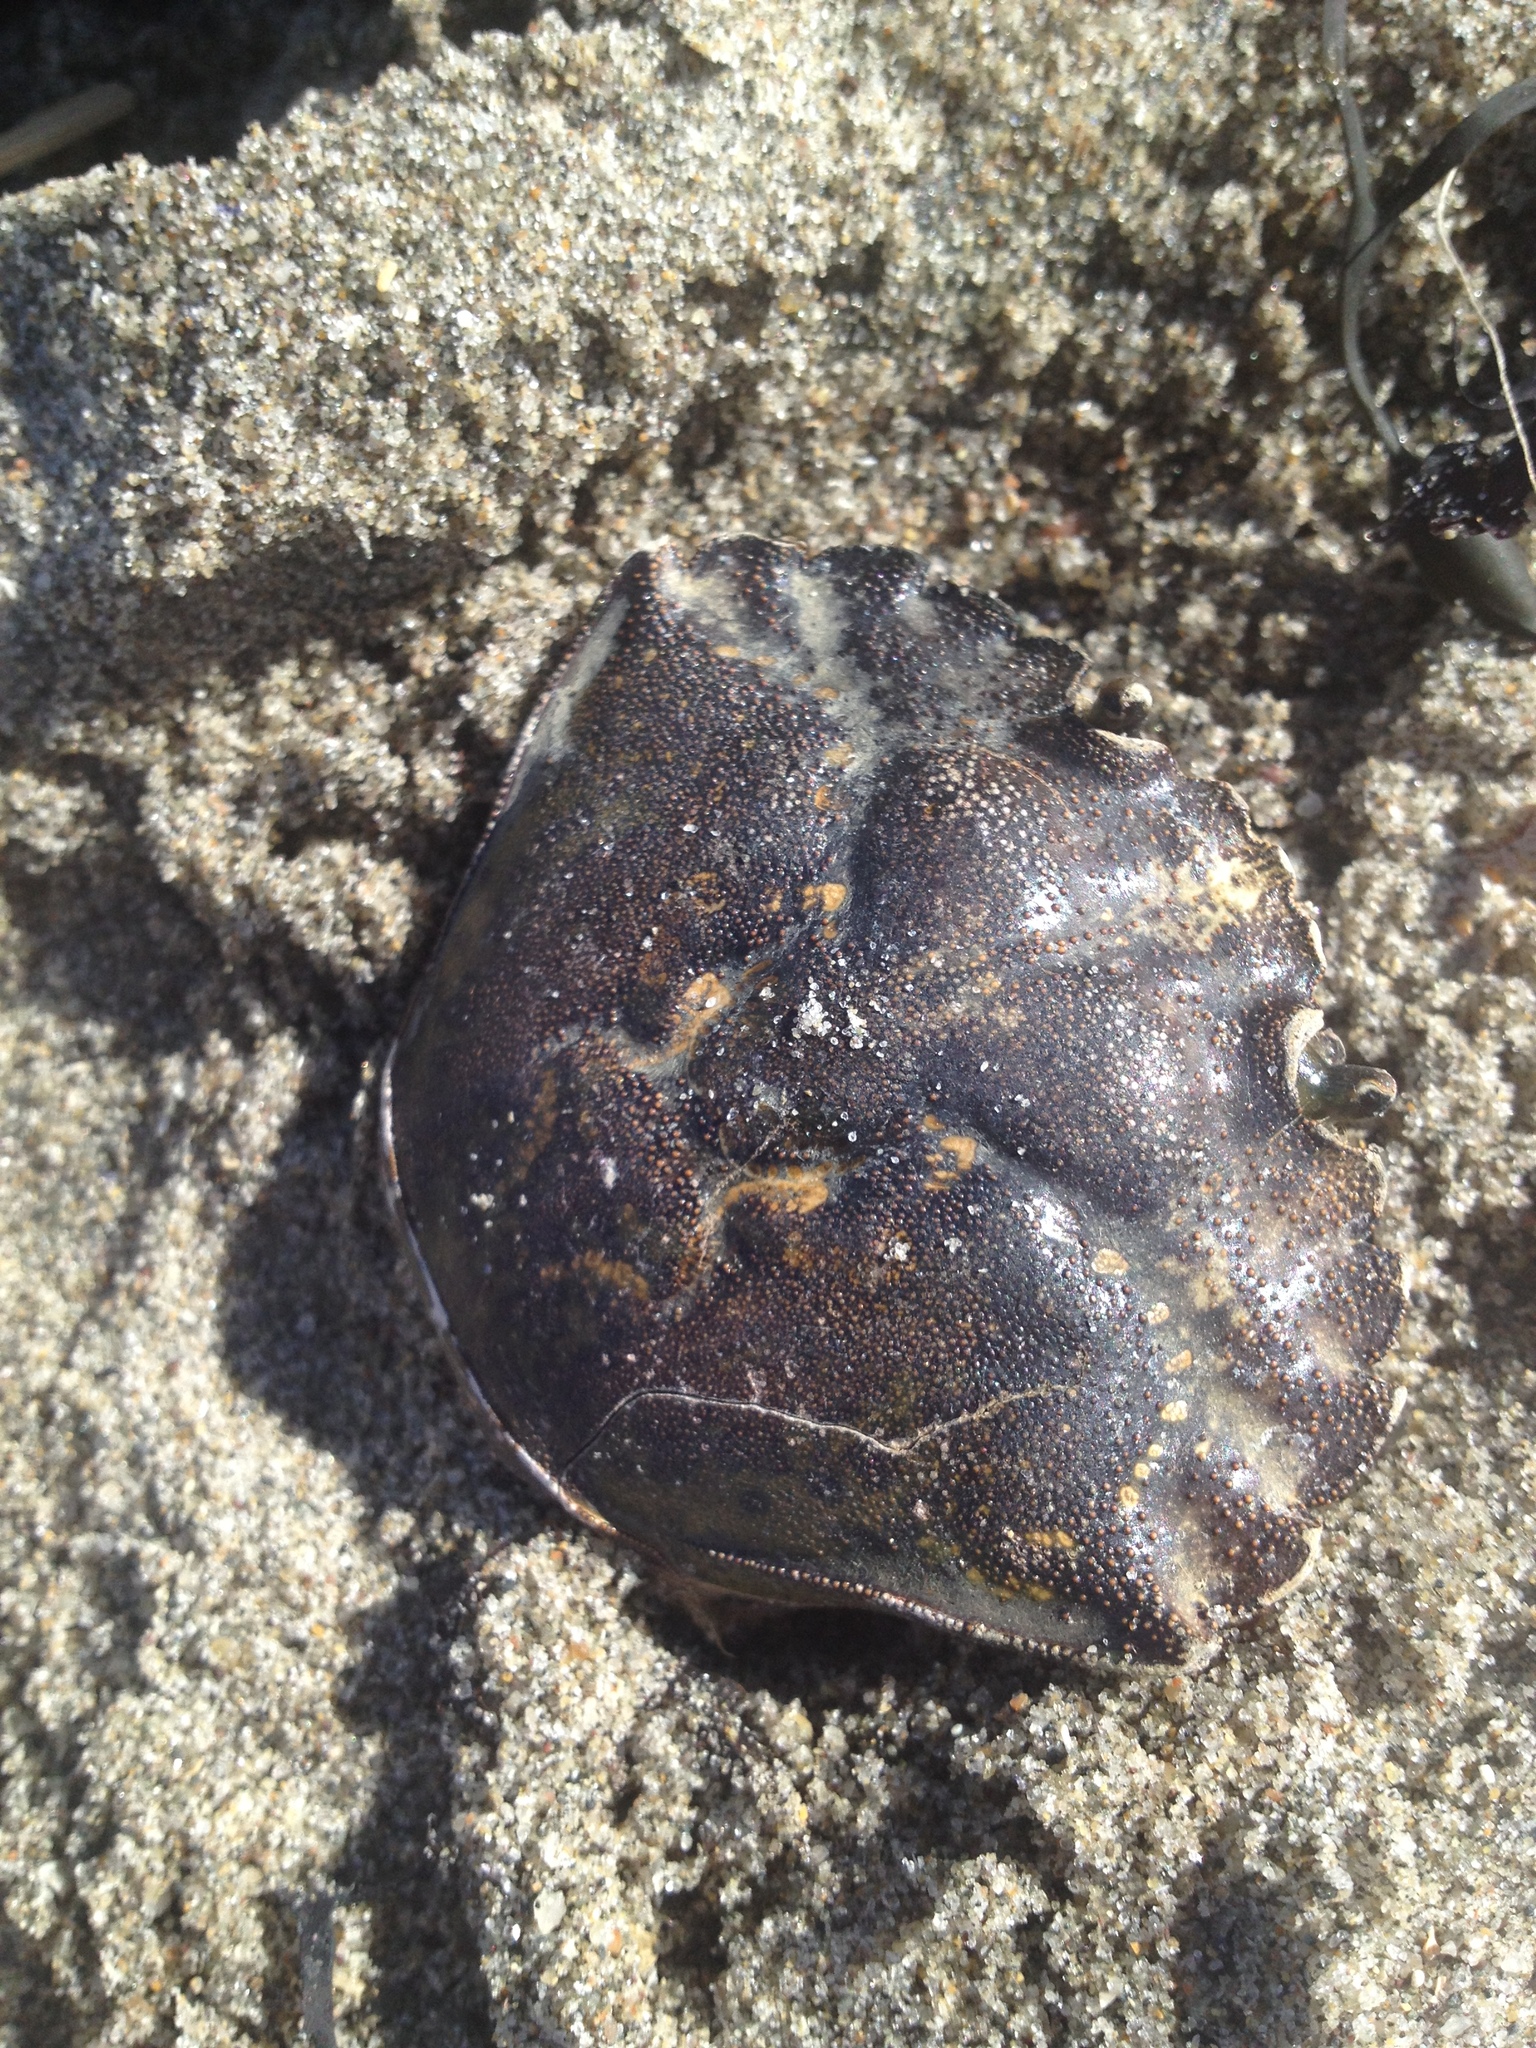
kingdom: Animalia
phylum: Arthropoda
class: Malacostraca
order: Decapoda
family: Carcinidae
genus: Carcinus
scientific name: Carcinus maenas
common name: European green crab
